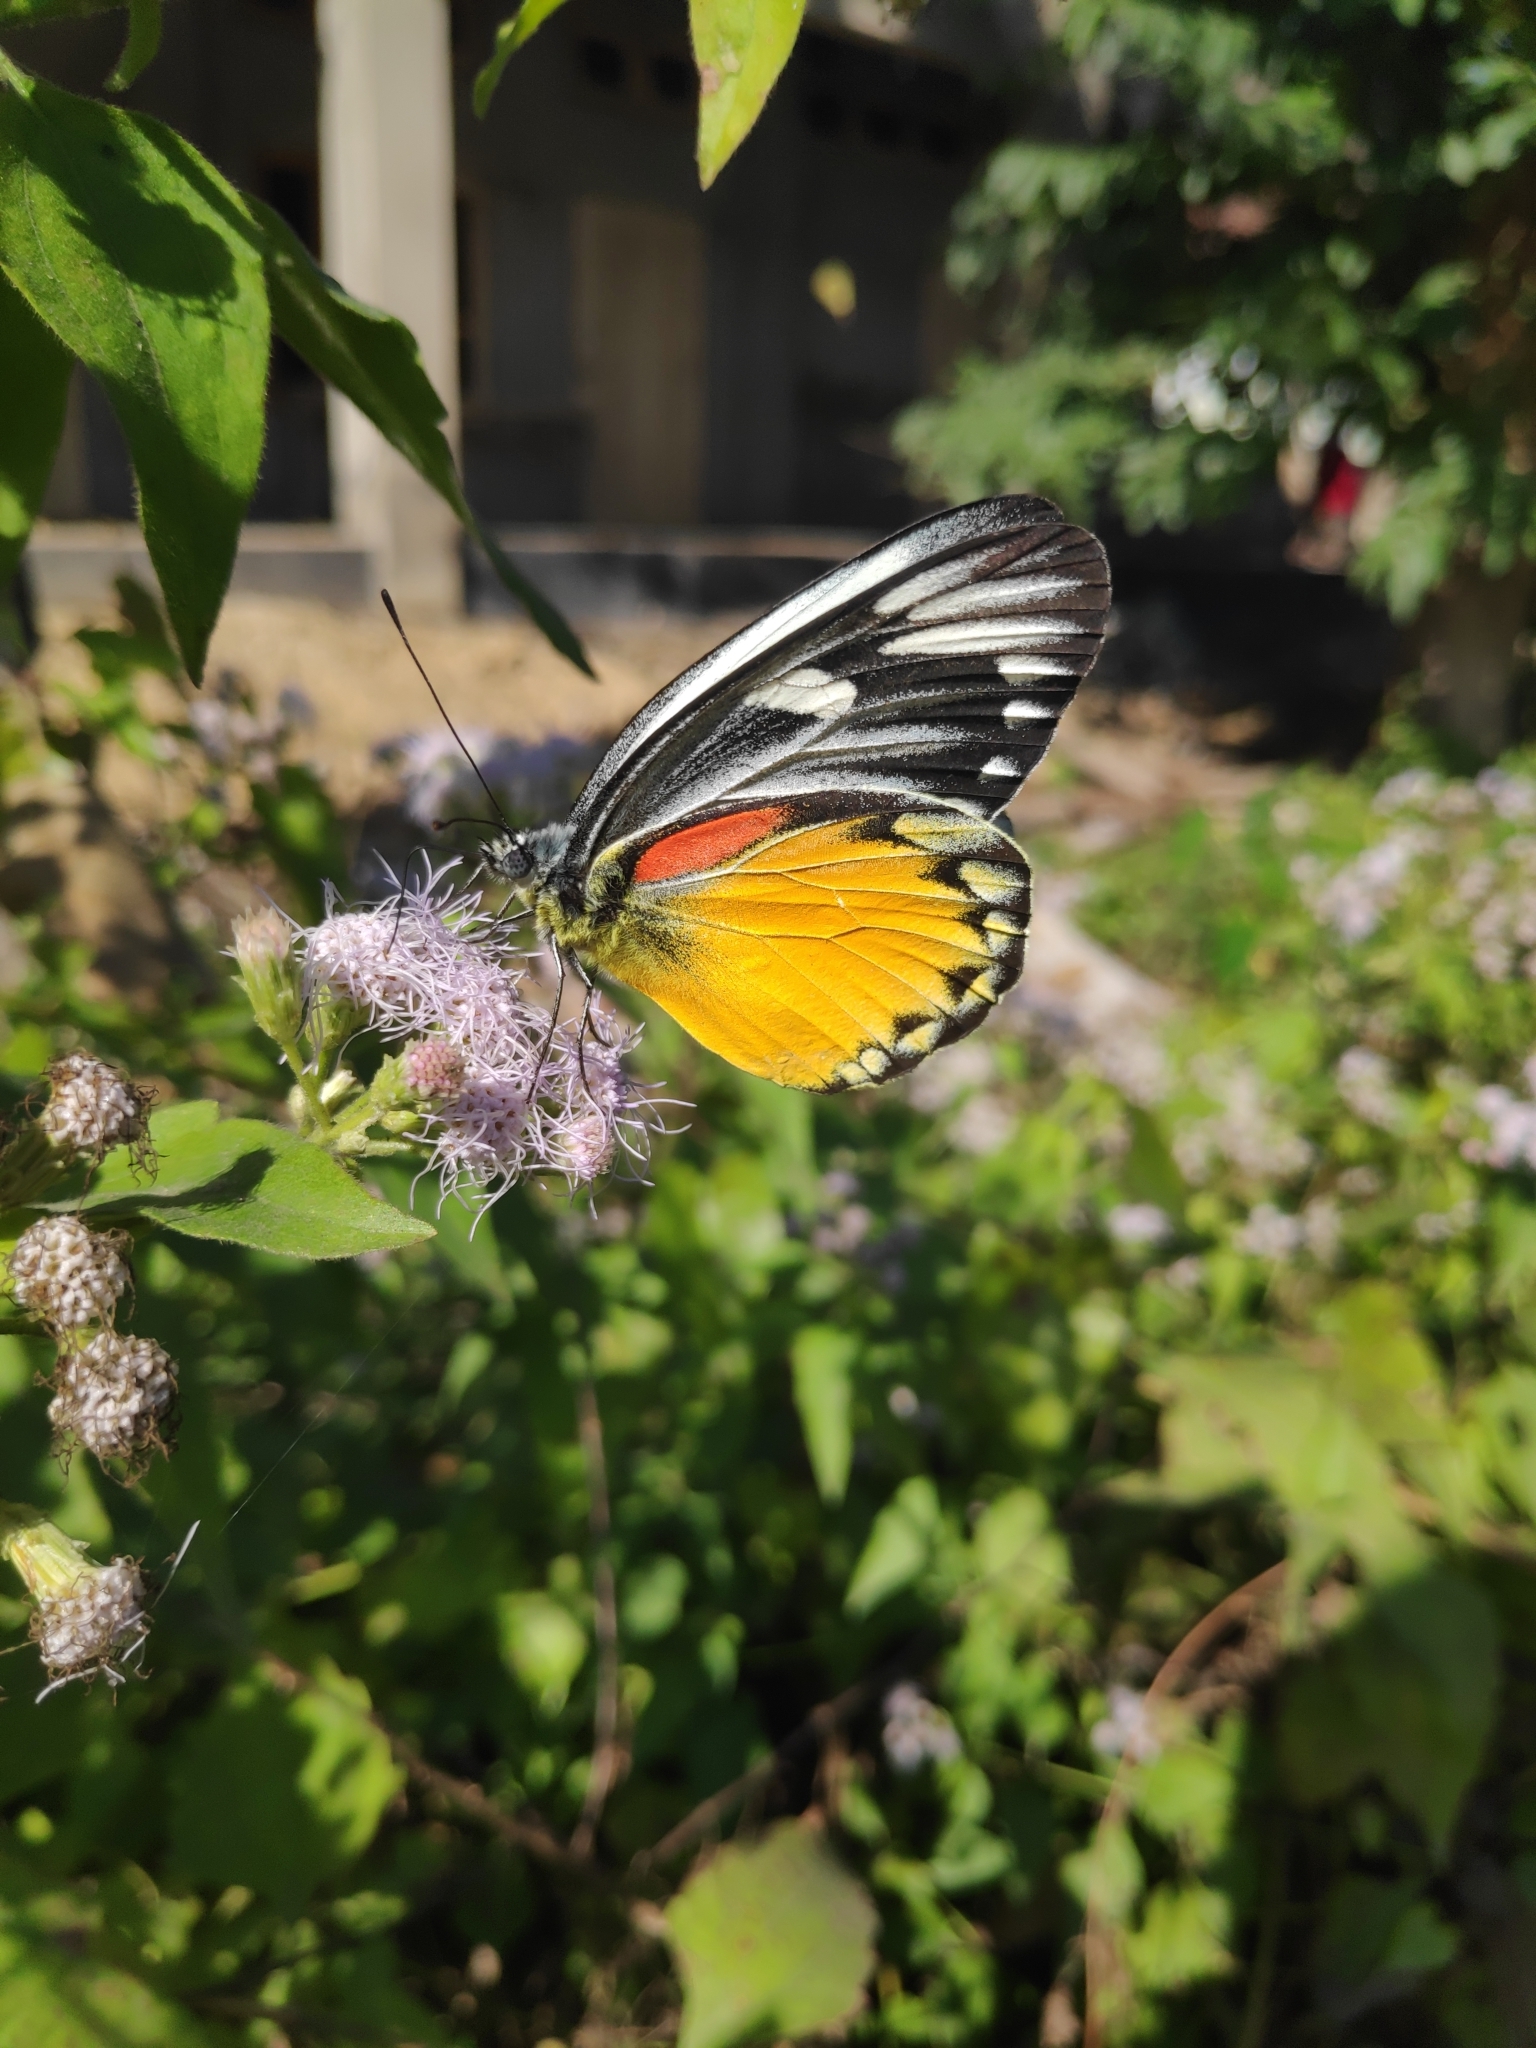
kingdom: Animalia
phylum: Arthropoda
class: Insecta
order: Lepidoptera
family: Pieridae
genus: Delias
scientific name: Delias descombesi
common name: Red-spot jezebel
